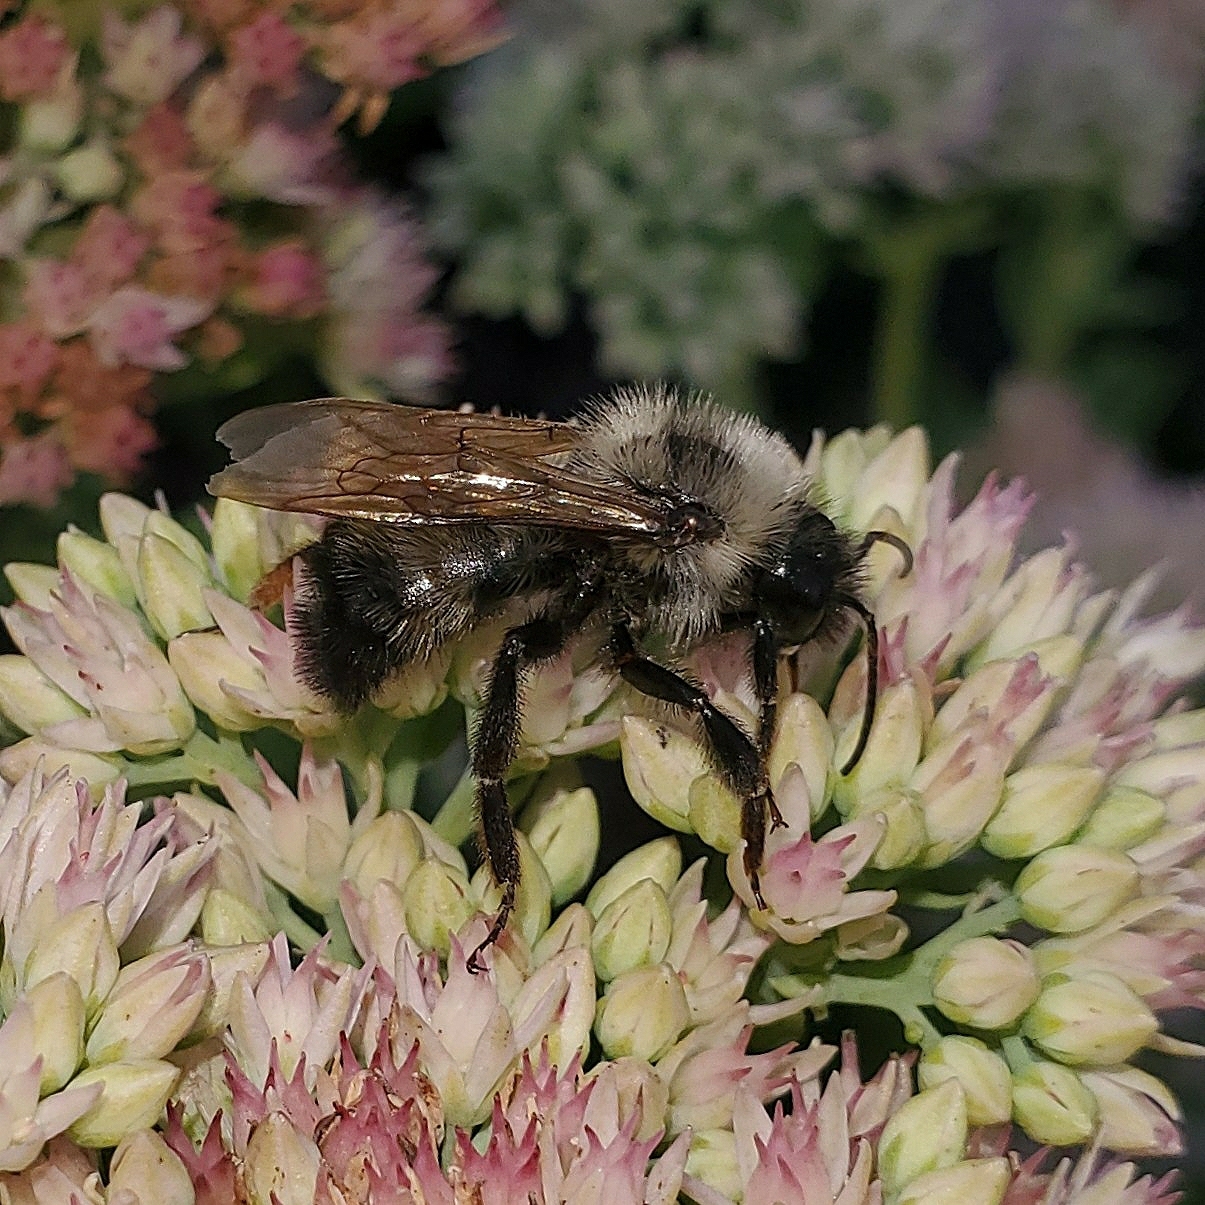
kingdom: Animalia
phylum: Arthropoda
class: Insecta
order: Hymenoptera
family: Apidae
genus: Bombus
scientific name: Bombus citrinus
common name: Lemon cuckoo bumble bee
